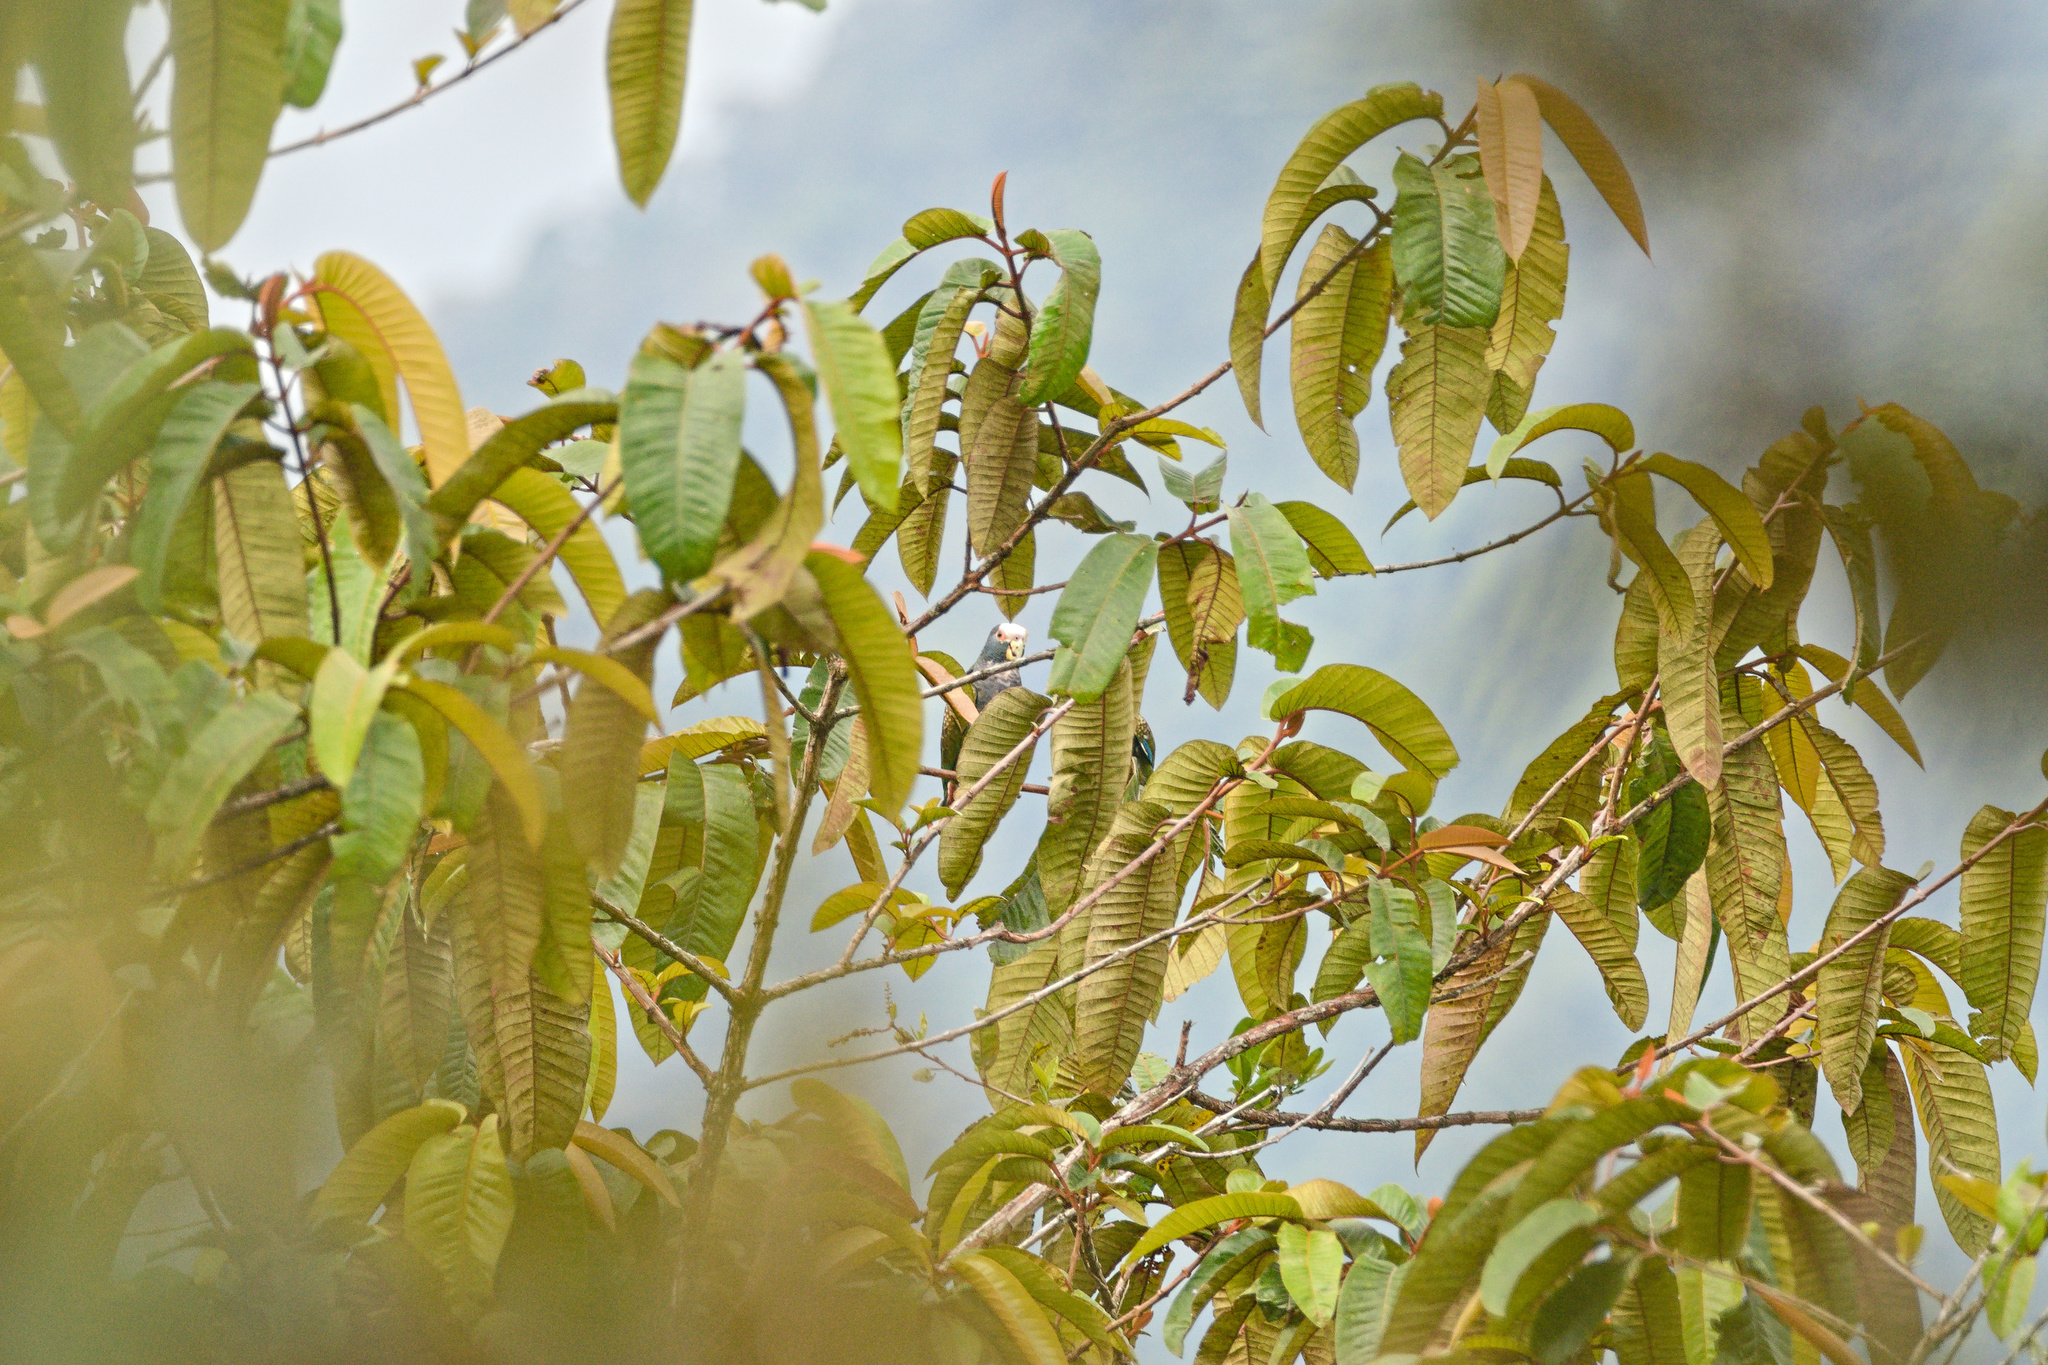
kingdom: Animalia
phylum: Chordata
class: Aves
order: Psittaciformes
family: Psittacidae
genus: Pionus
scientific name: Pionus senilis
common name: White-crowned parrot
